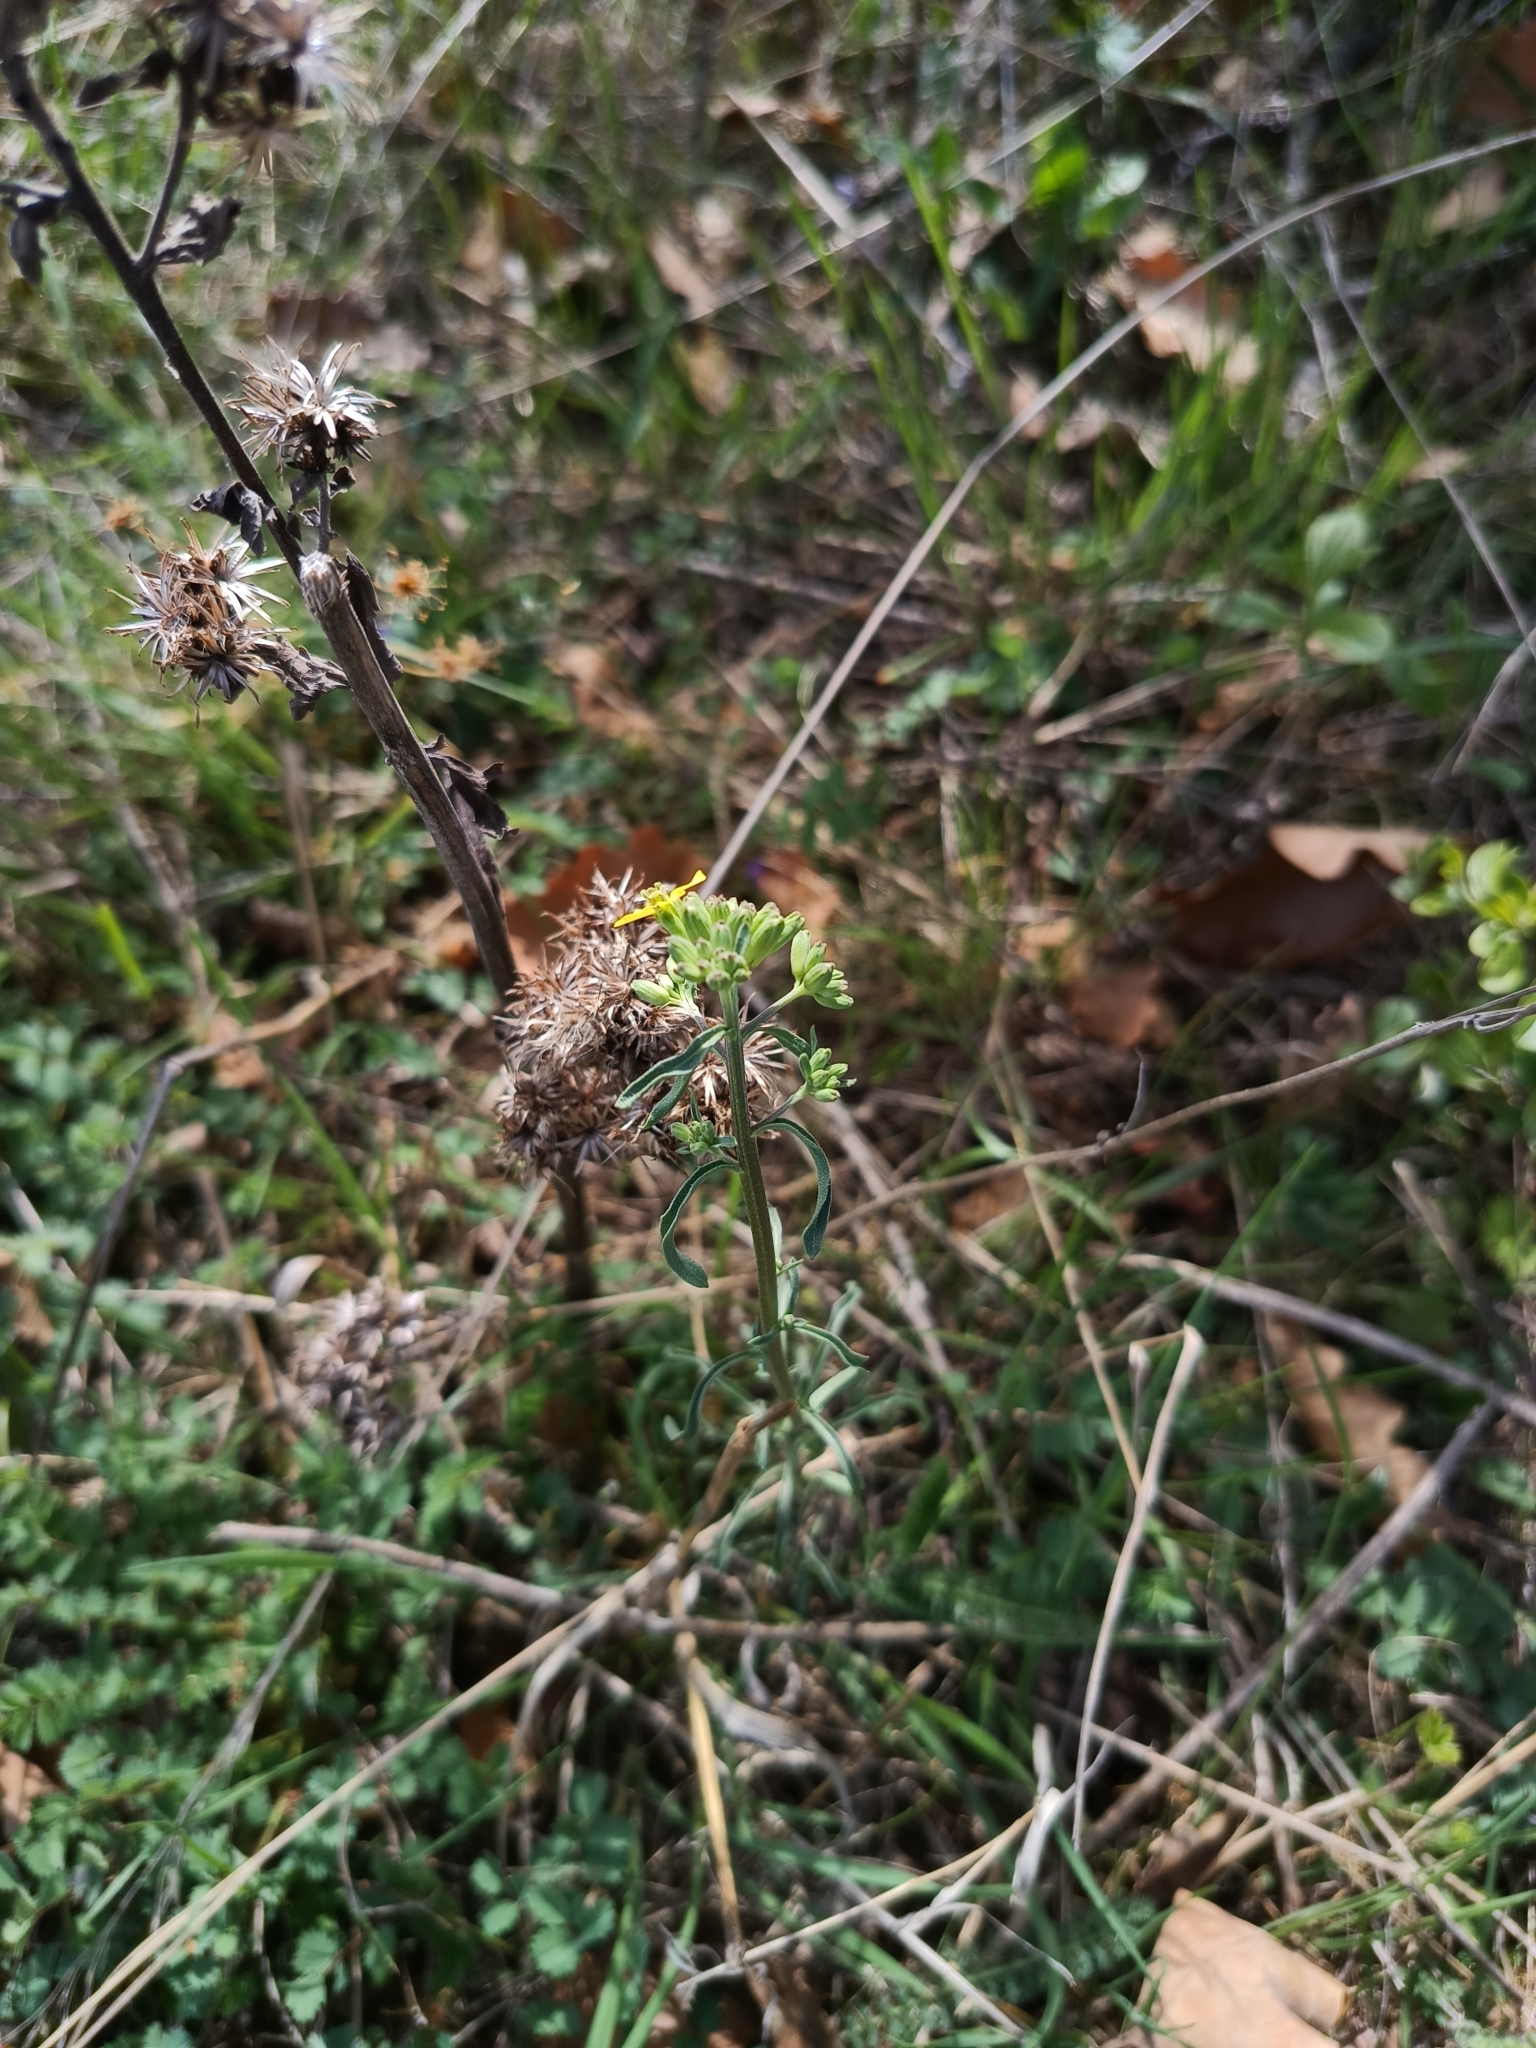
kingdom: Plantae
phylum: Tracheophyta
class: Magnoliopsida
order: Brassicales
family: Brassicaceae
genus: Erysimum
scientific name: Erysimum crepidifolium
